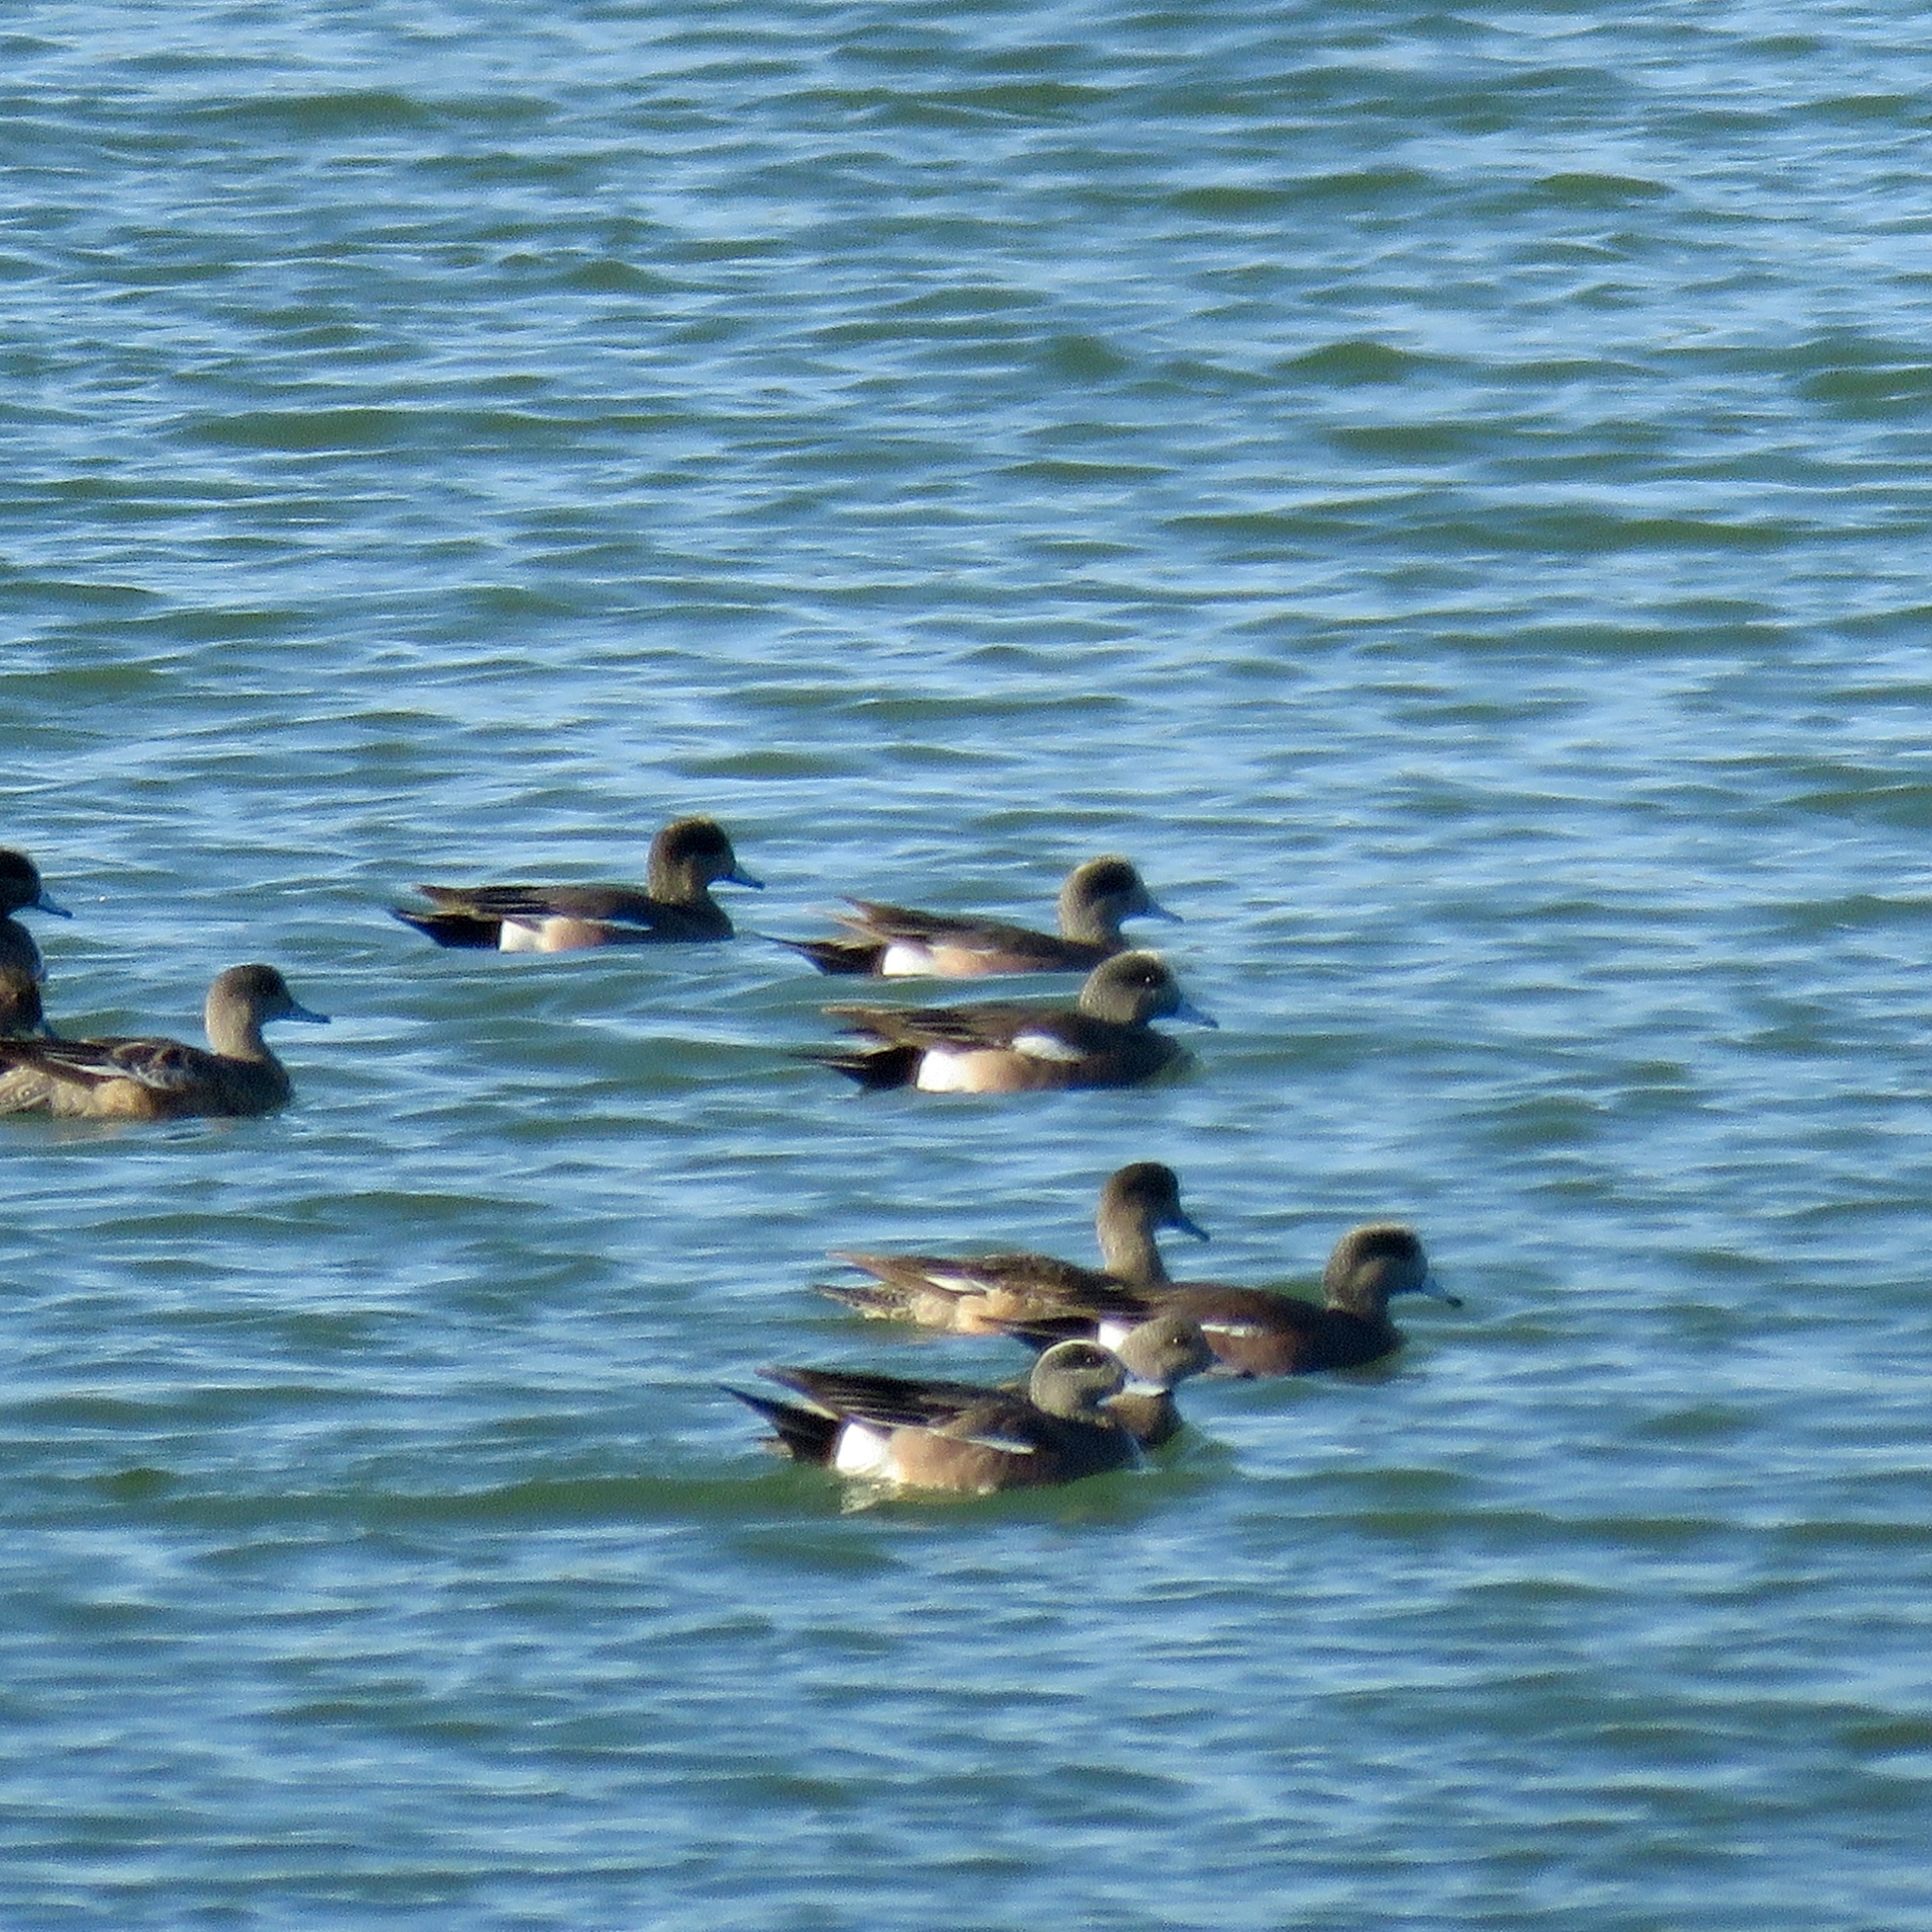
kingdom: Animalia
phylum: Chordata
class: Aves
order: Anseriformes
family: Anatidae
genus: Mareca
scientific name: Mareca americana
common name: American wigeon
